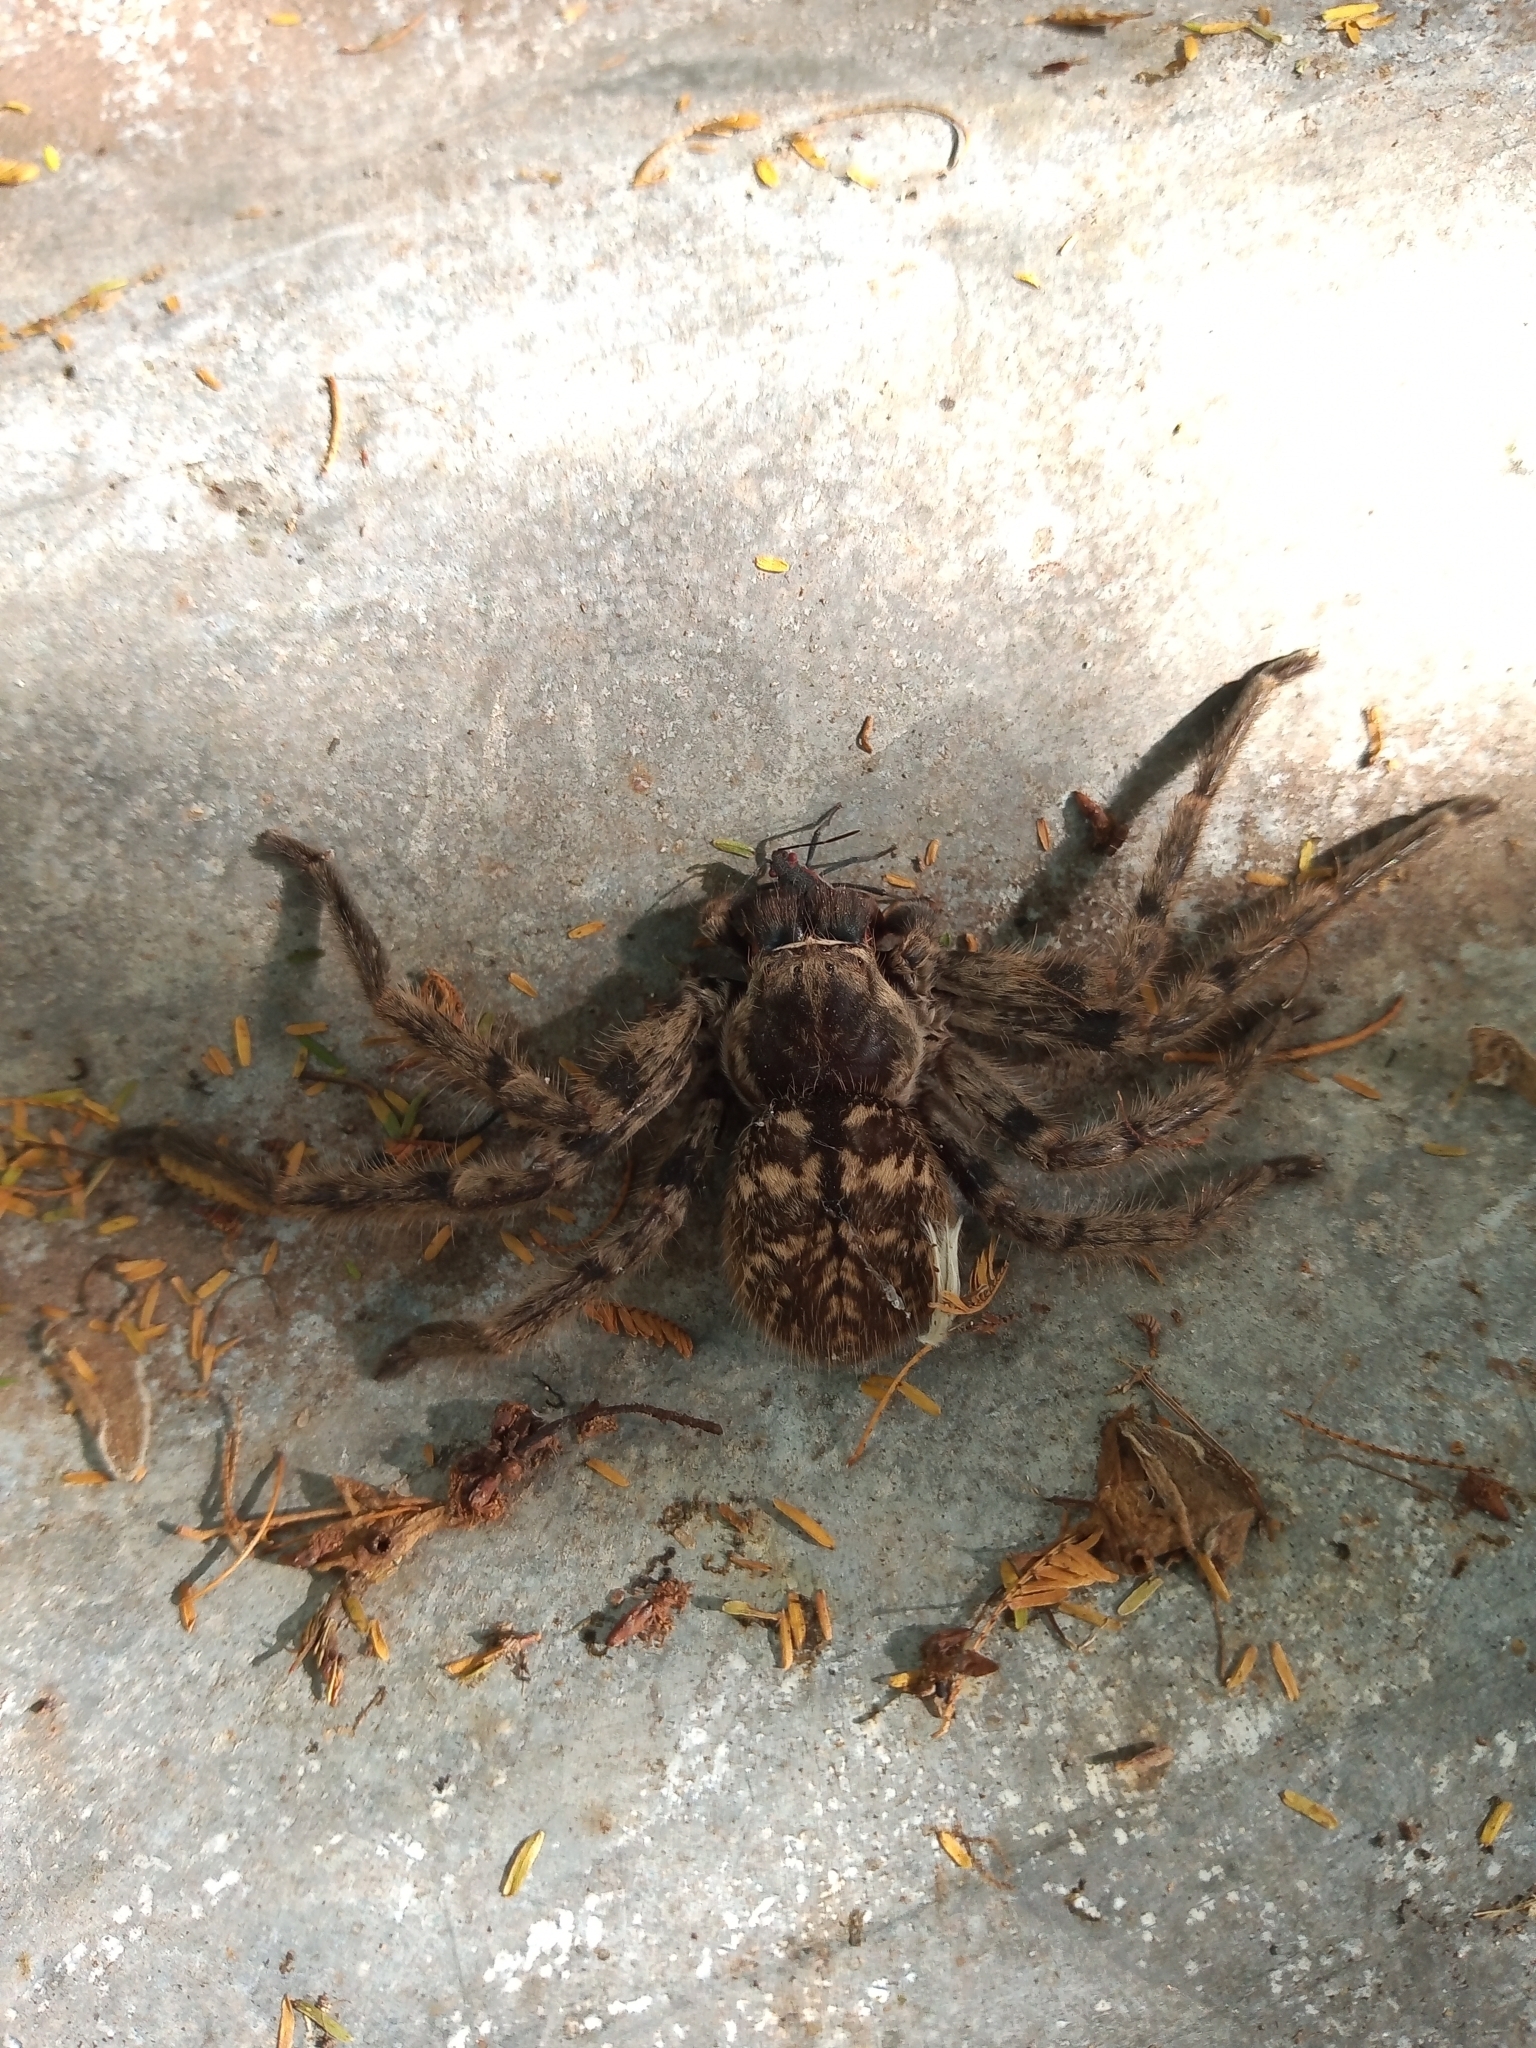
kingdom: Animalia
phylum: Arthropoda
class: Arachnida
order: Araneae
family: Sparassidae
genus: Polybetes
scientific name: Polybetes pythagoricus
